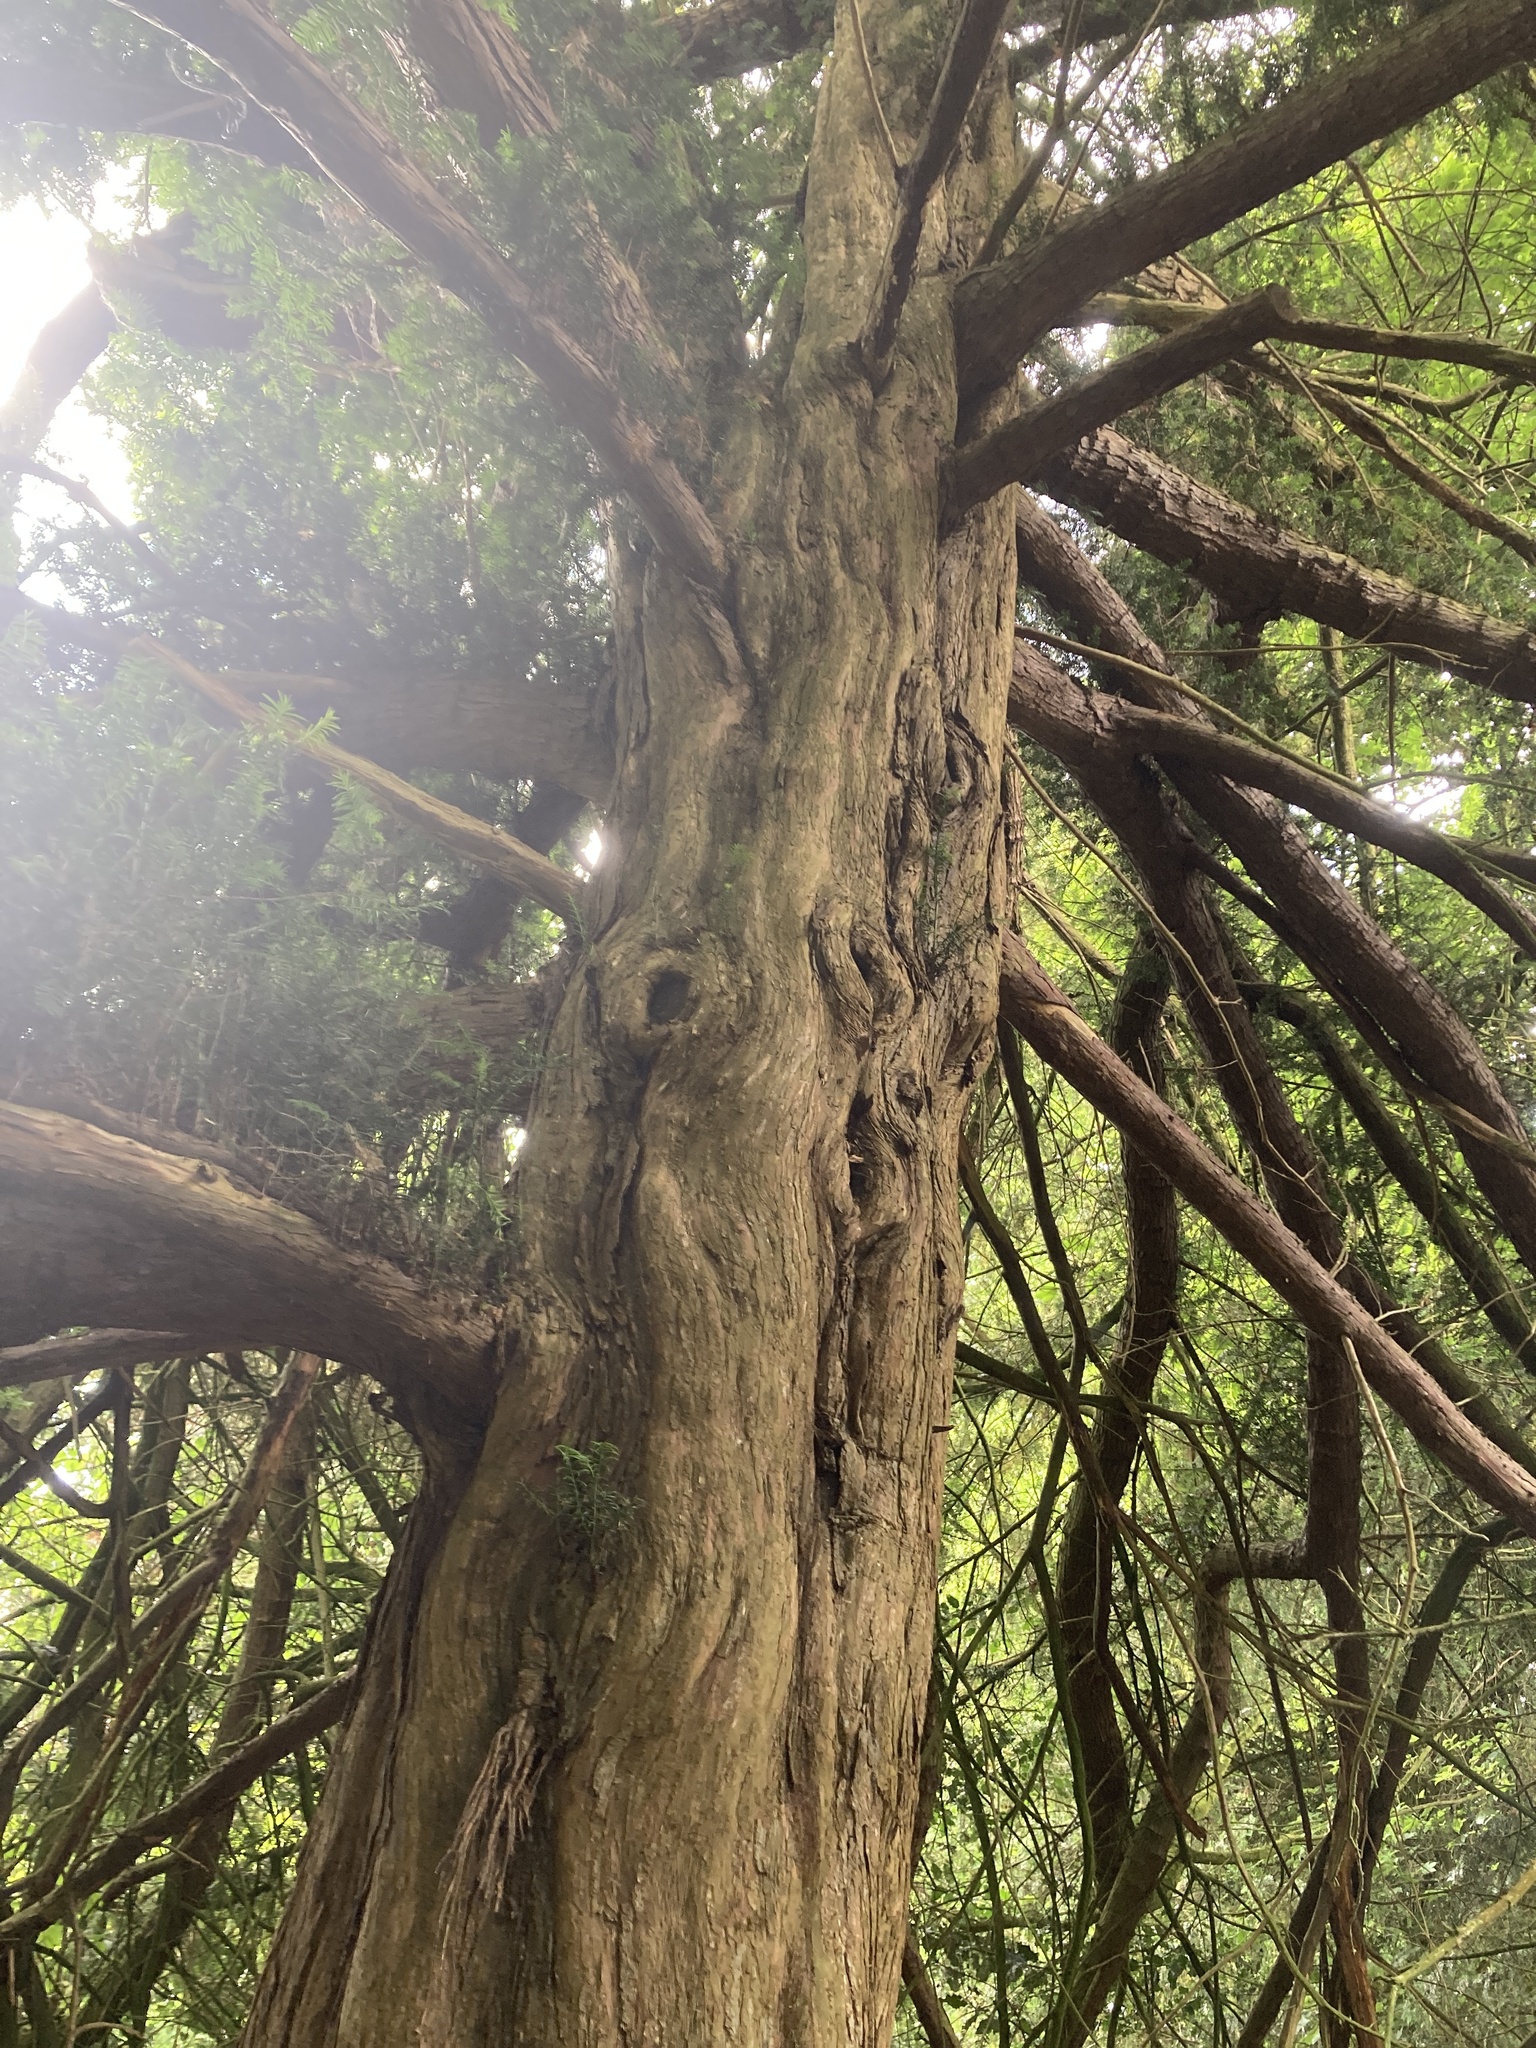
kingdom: Plantae
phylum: Tracheophyta
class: Pinopsida
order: Pinales
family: Taxaceae
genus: Taxus
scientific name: Taxus baccata
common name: Yew
